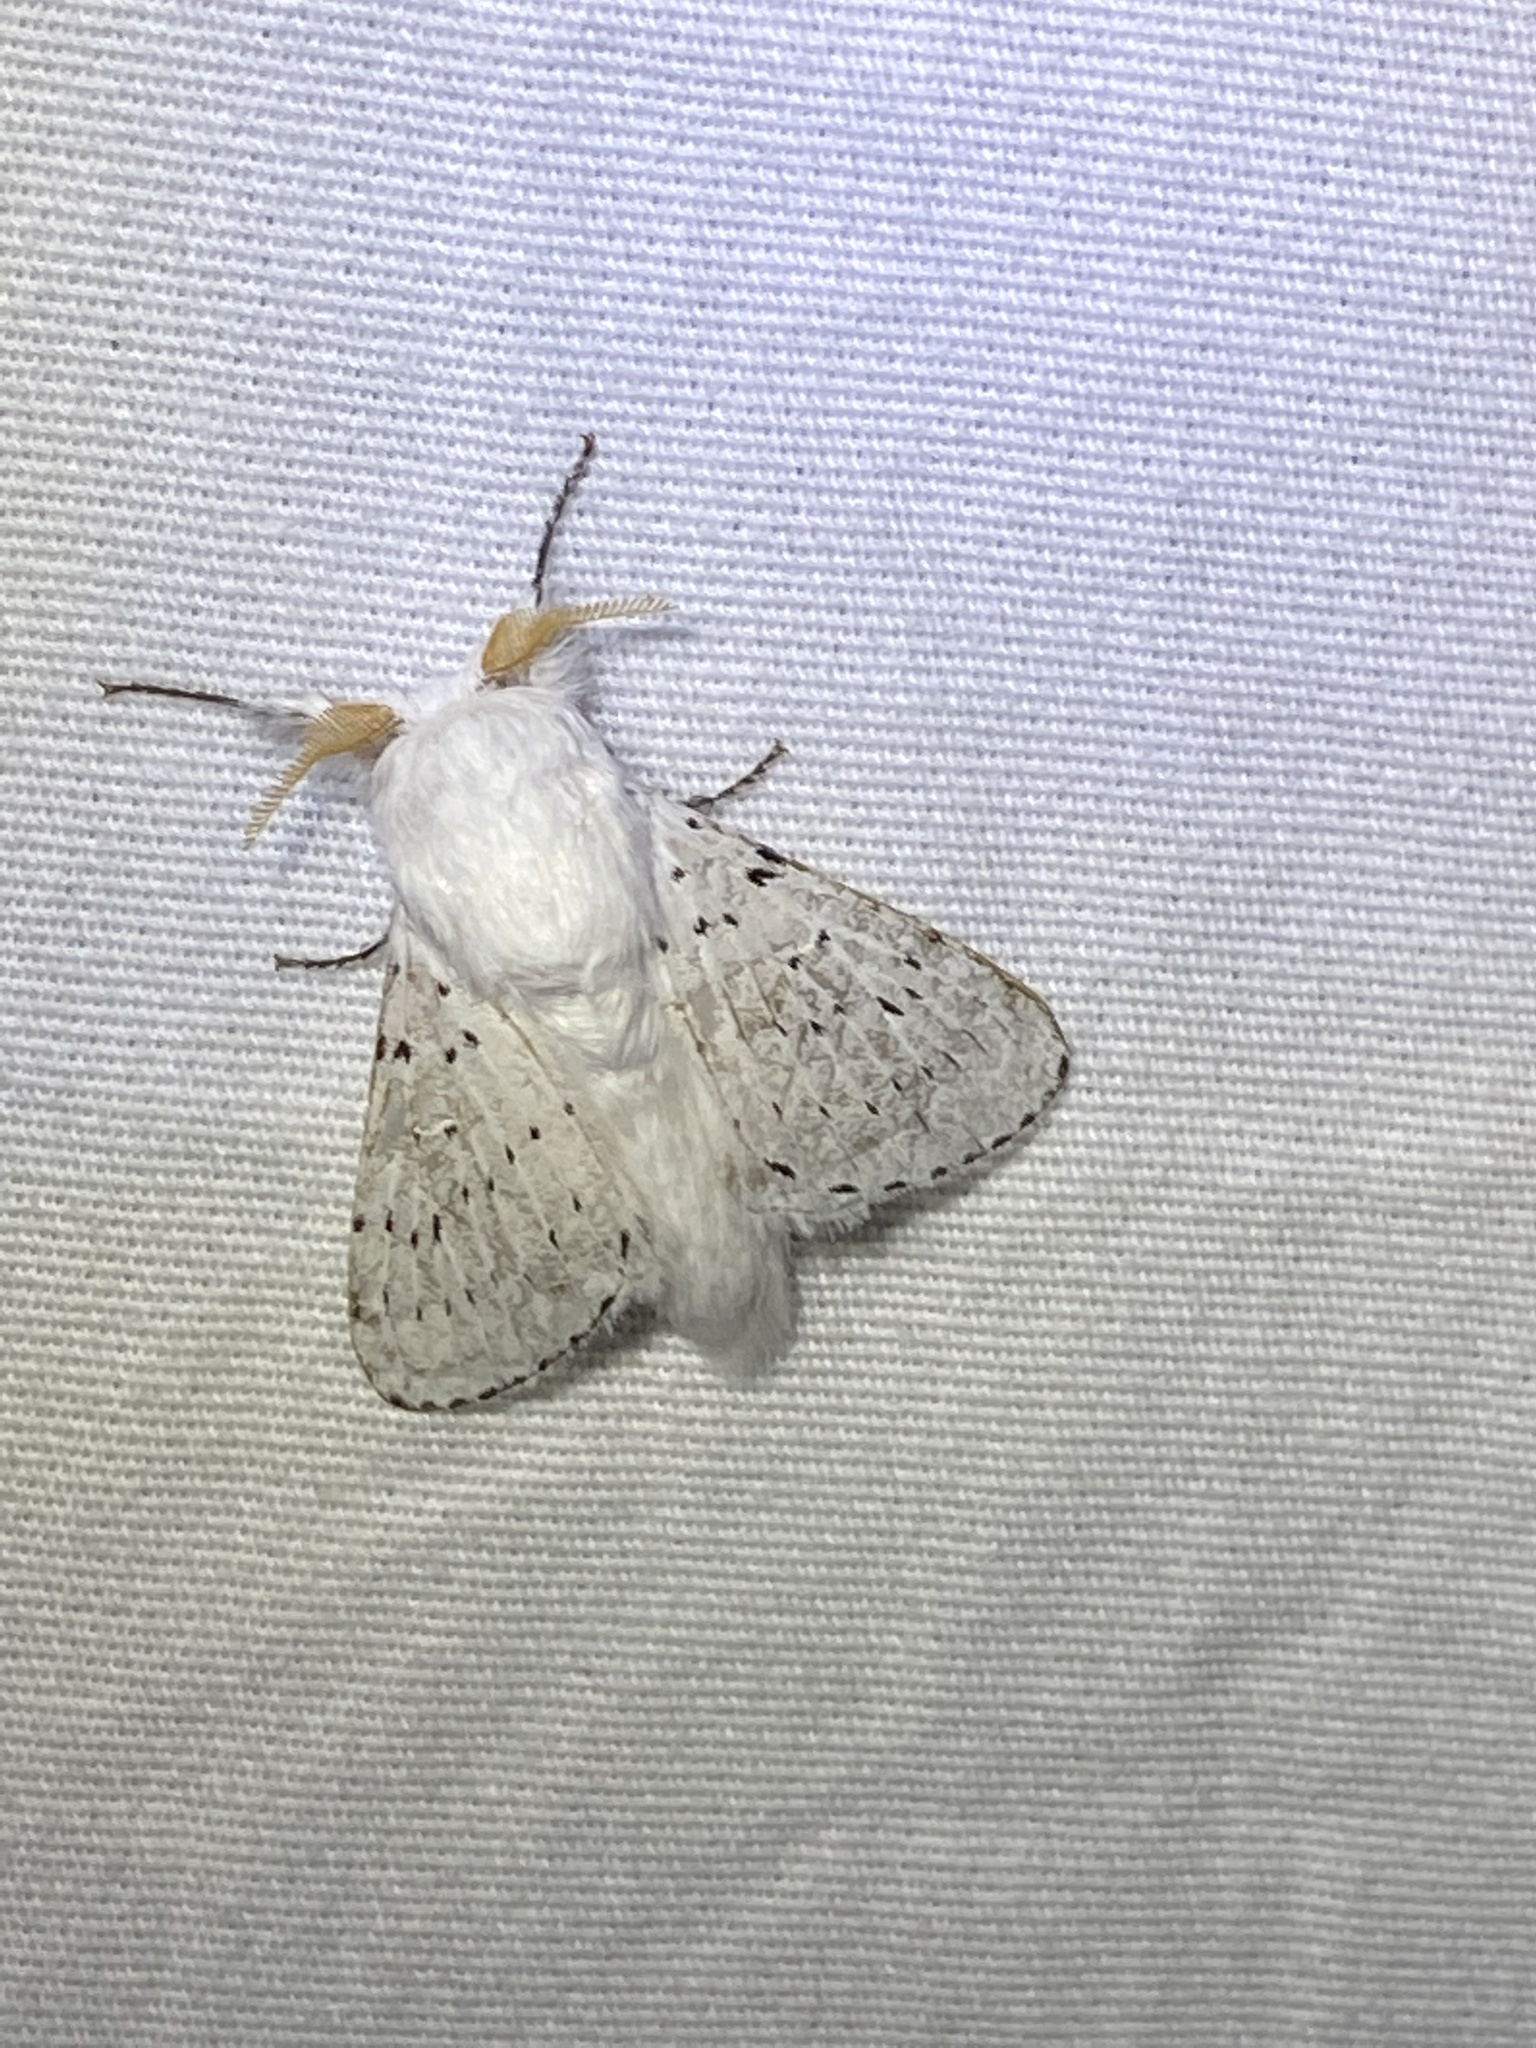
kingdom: Animalia
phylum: Arthropoda
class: Insecta
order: Lepidoptera
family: Lasiocampidae
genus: Artace
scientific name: Artace cribrarius
